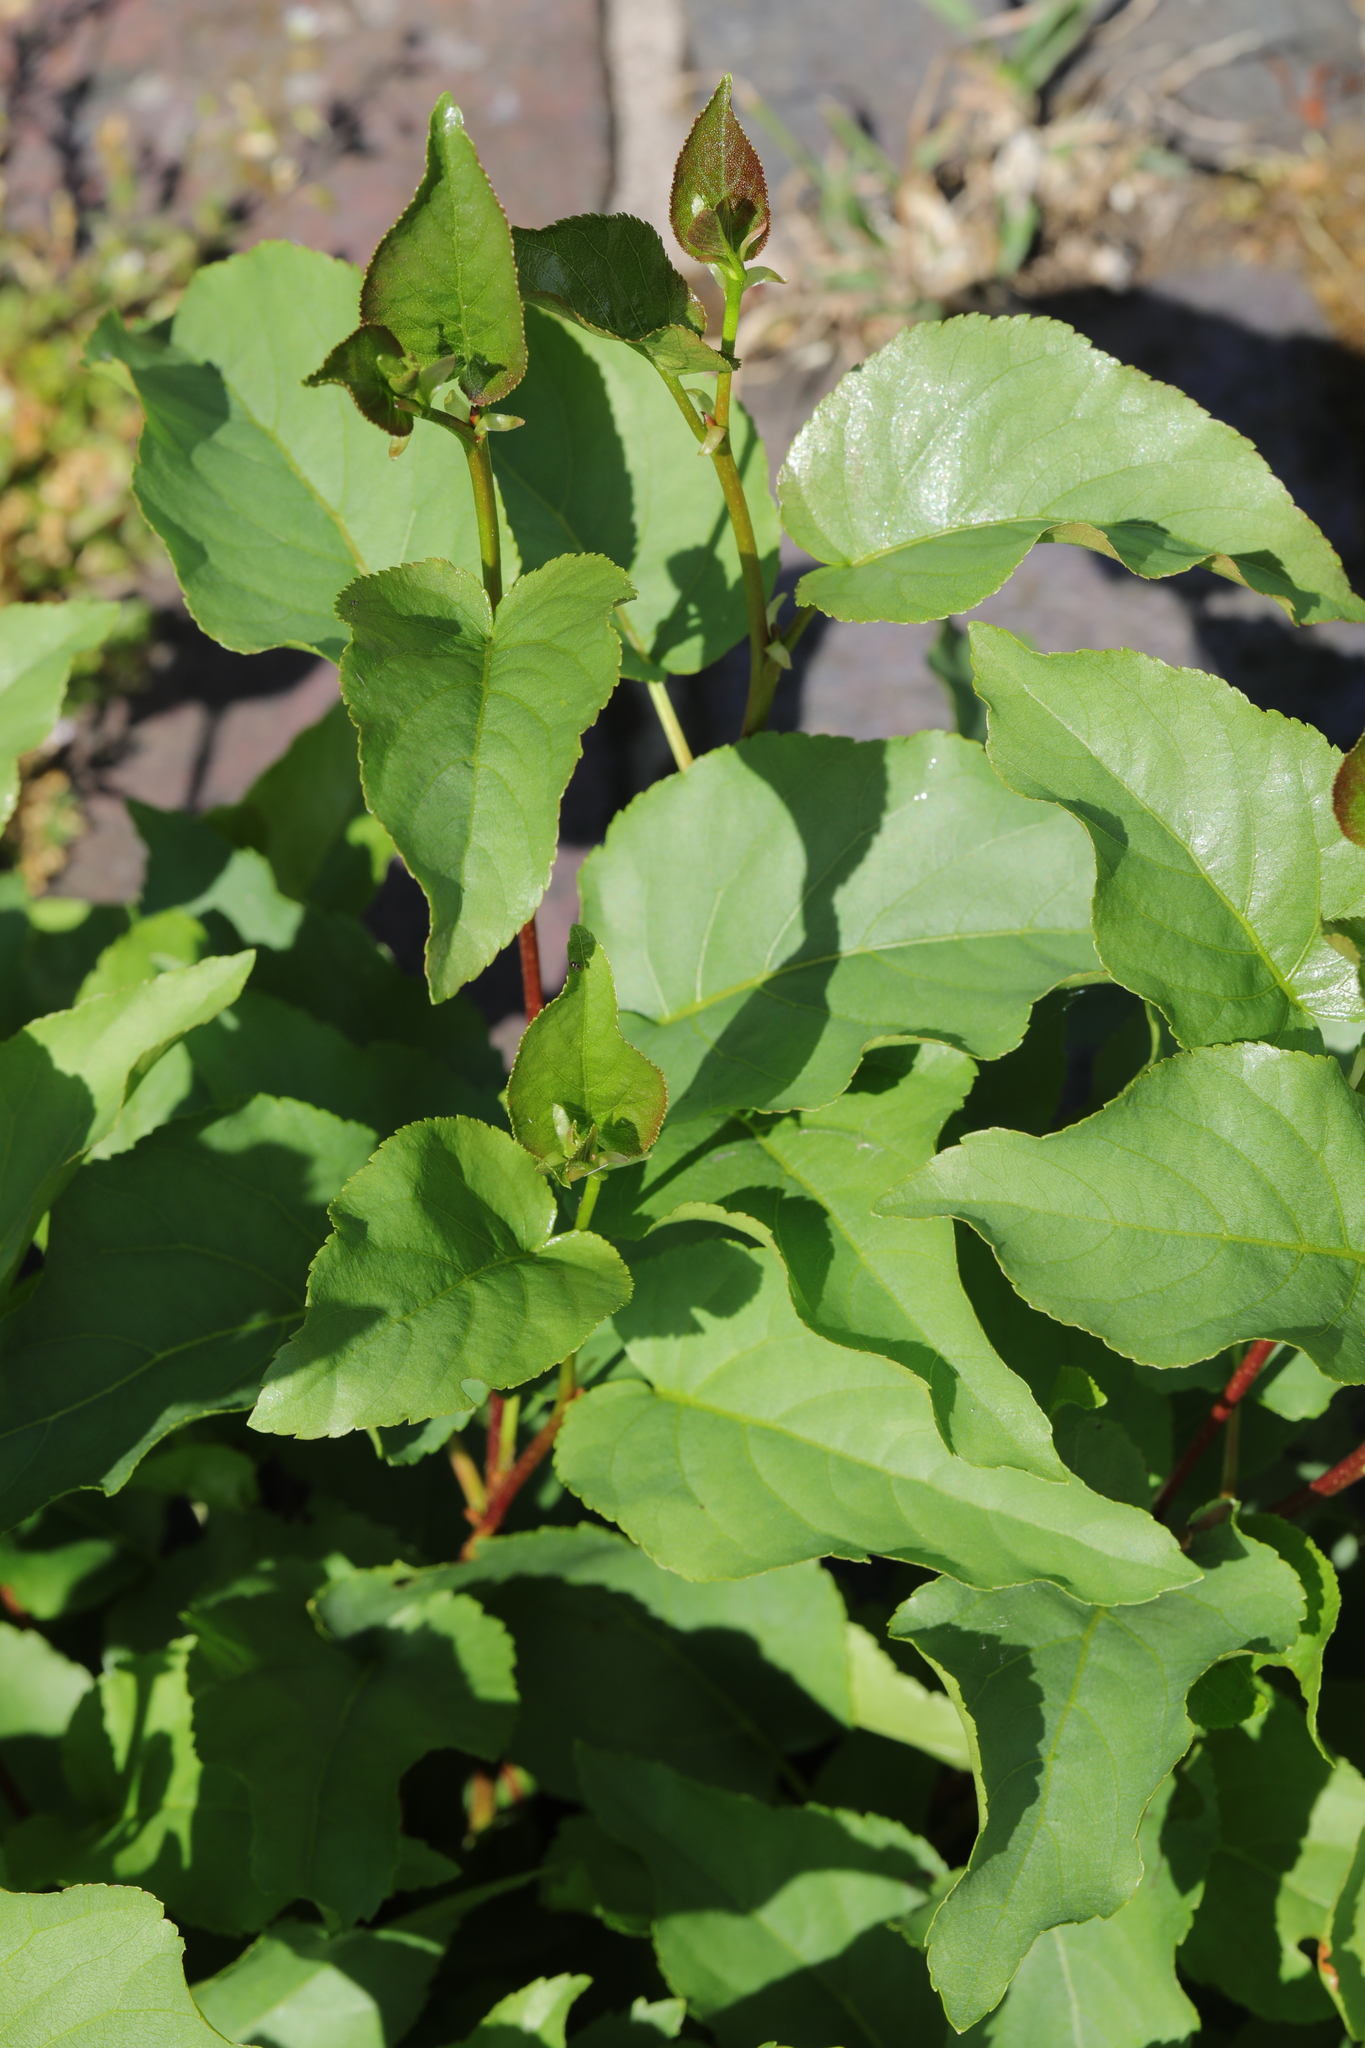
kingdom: Plantae
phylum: Tracheophyta
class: Magnoliopsida
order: Fagales
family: Betulaceae
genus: Alnus
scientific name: Alnus cordata
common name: Italian alder
